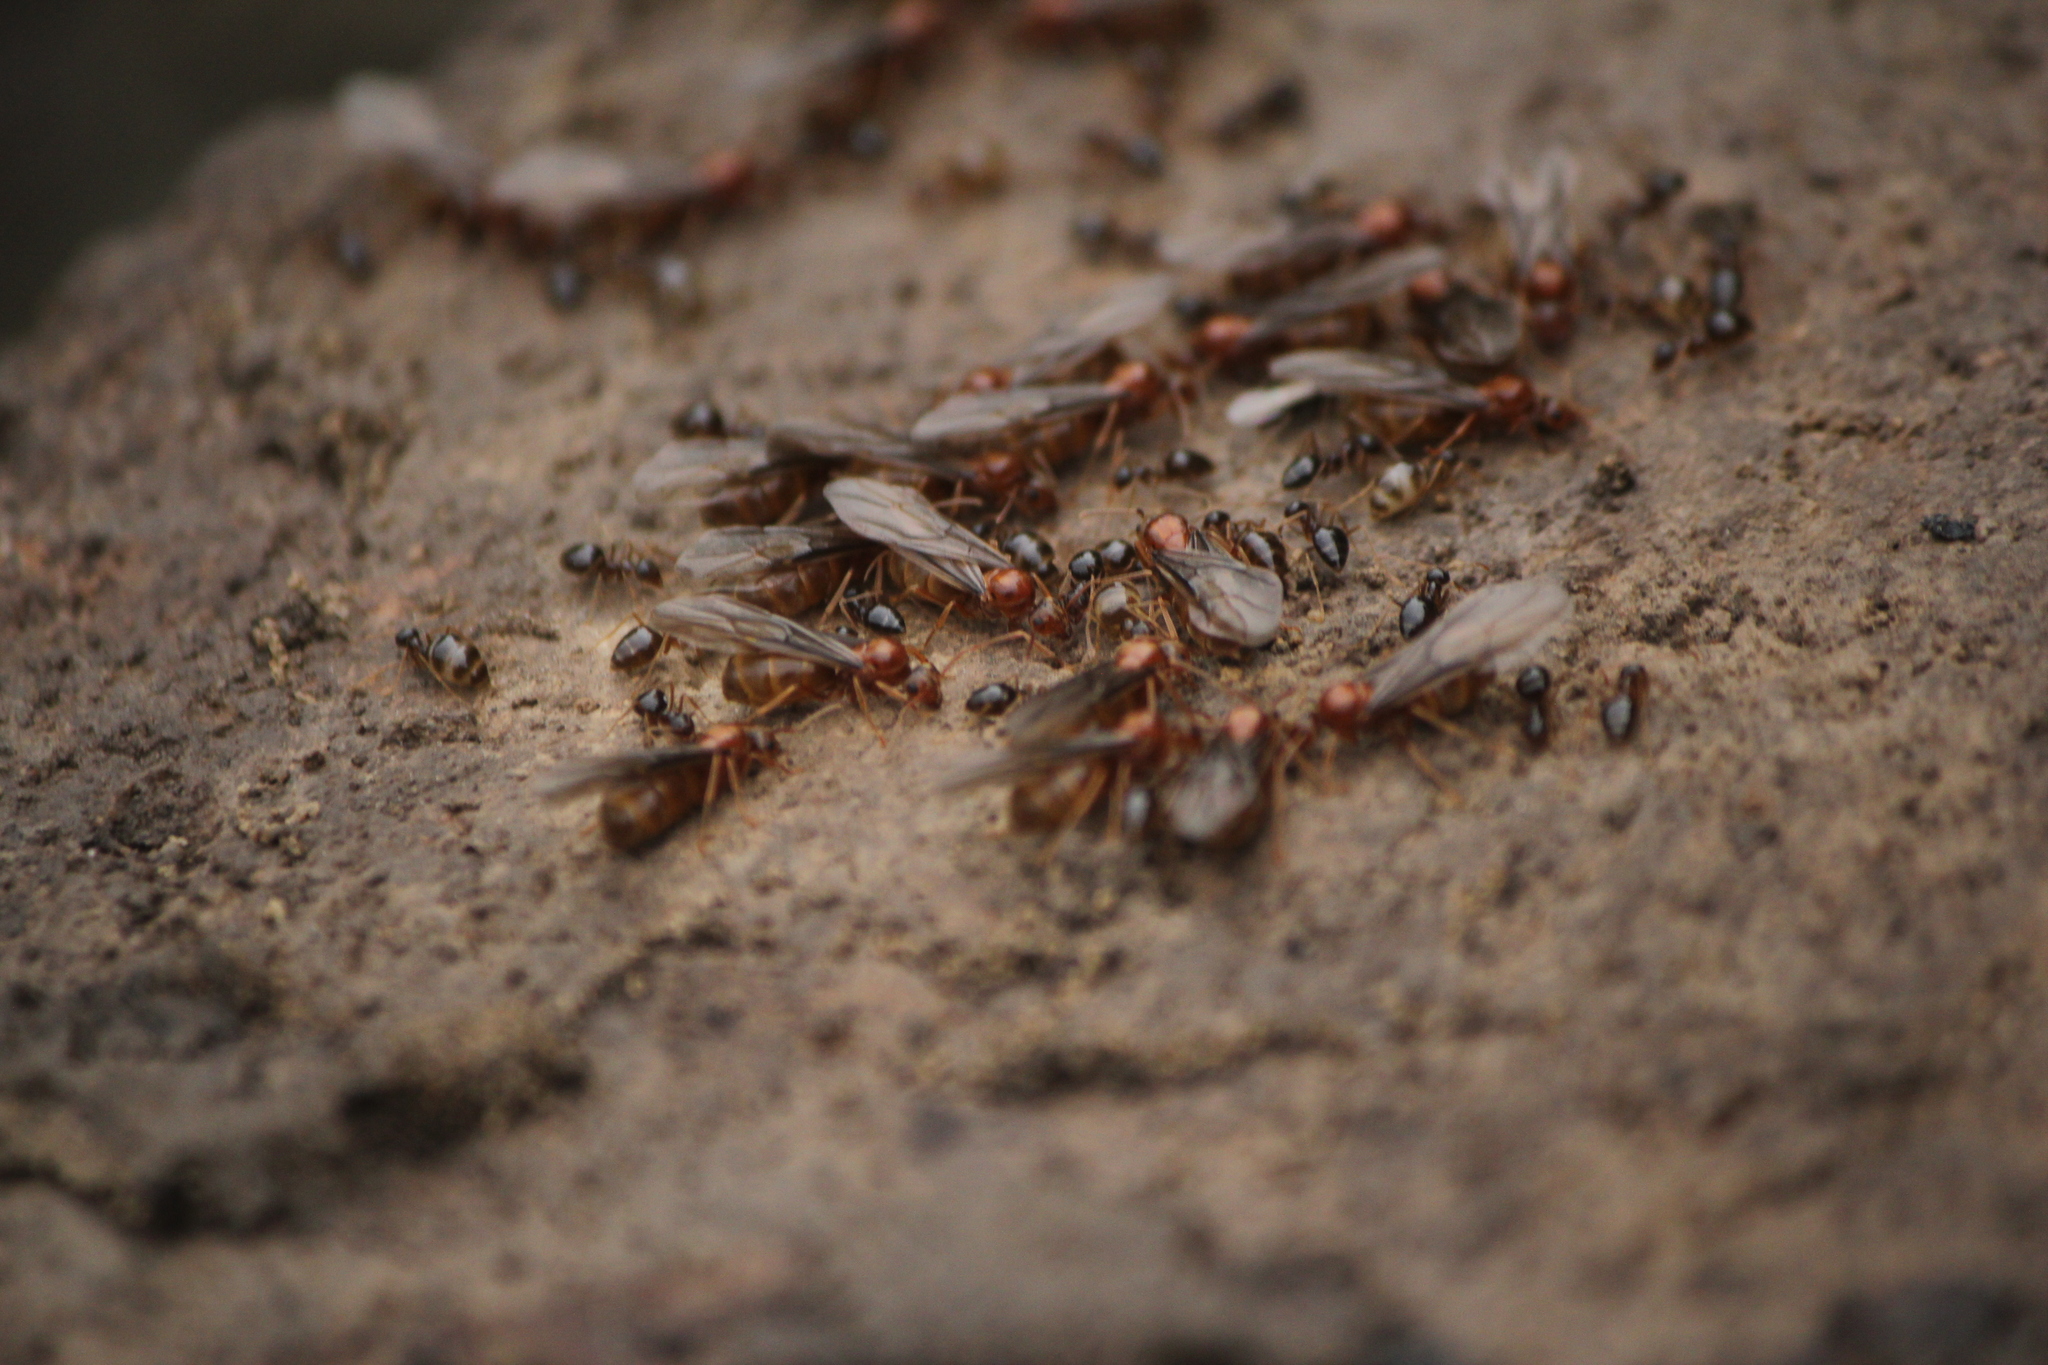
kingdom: Animalia
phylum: Arthropoda
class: Insecta
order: Hymenoptera
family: Formicidae
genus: Prenolepis
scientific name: Prenolepis imparis
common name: Small honey ant
